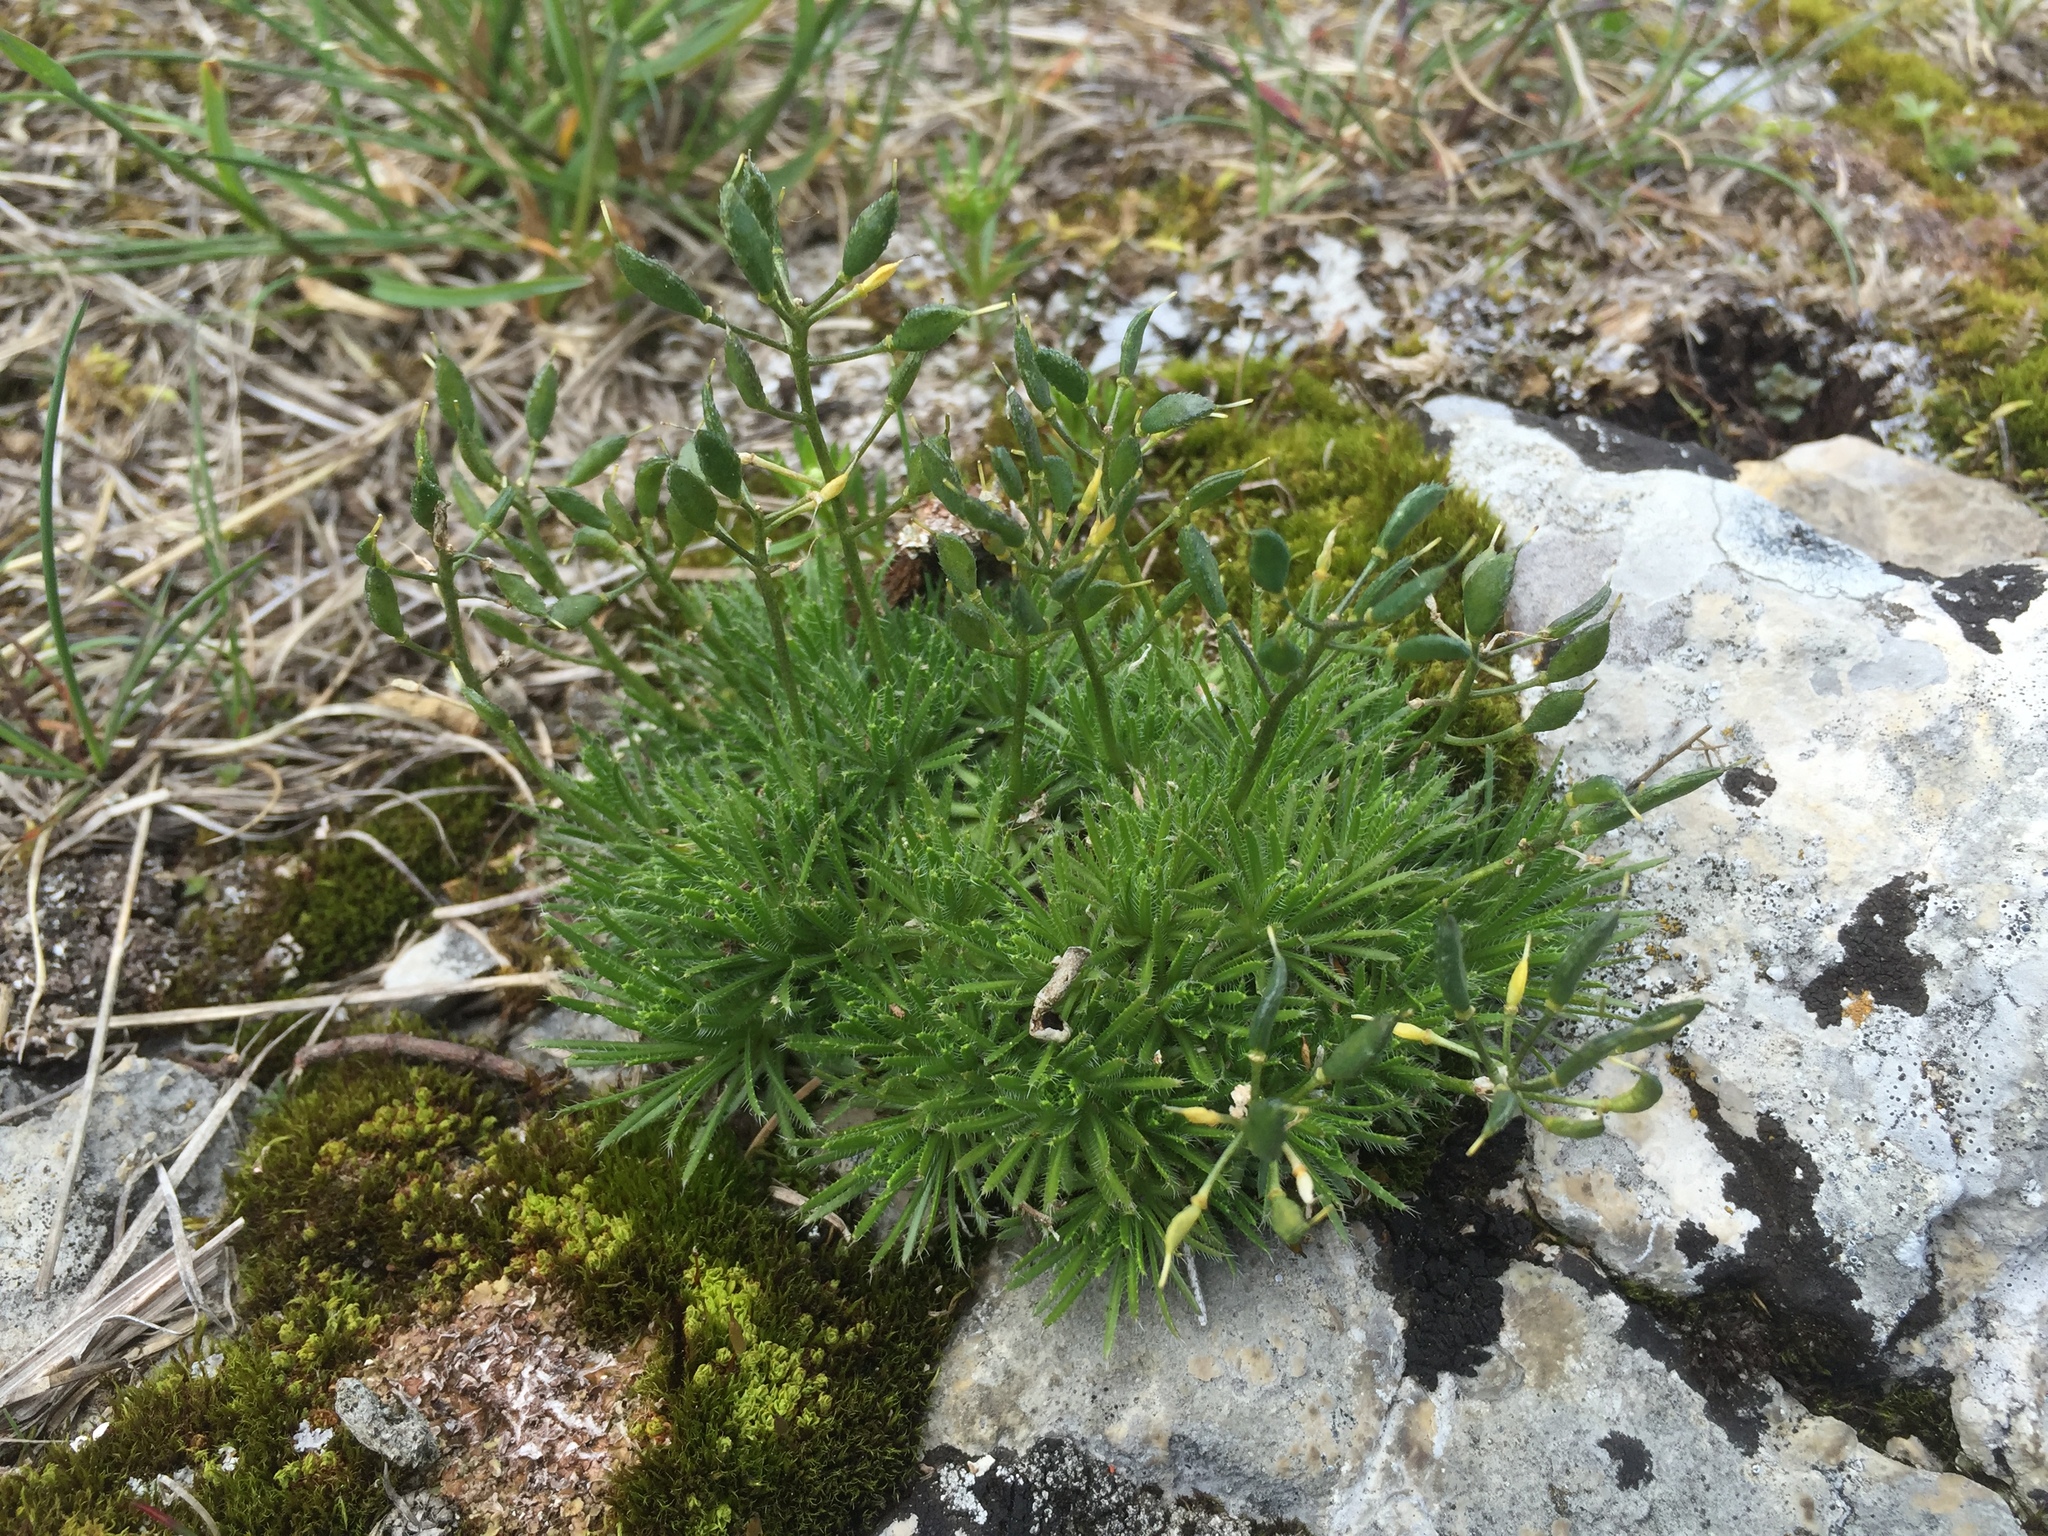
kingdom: Plantae
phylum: Tracheophyta
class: Magnoliopsida
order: Brassicales
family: Brassicaceae
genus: Draba
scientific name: Draba aizoides
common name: Yellow whitlowgrass
